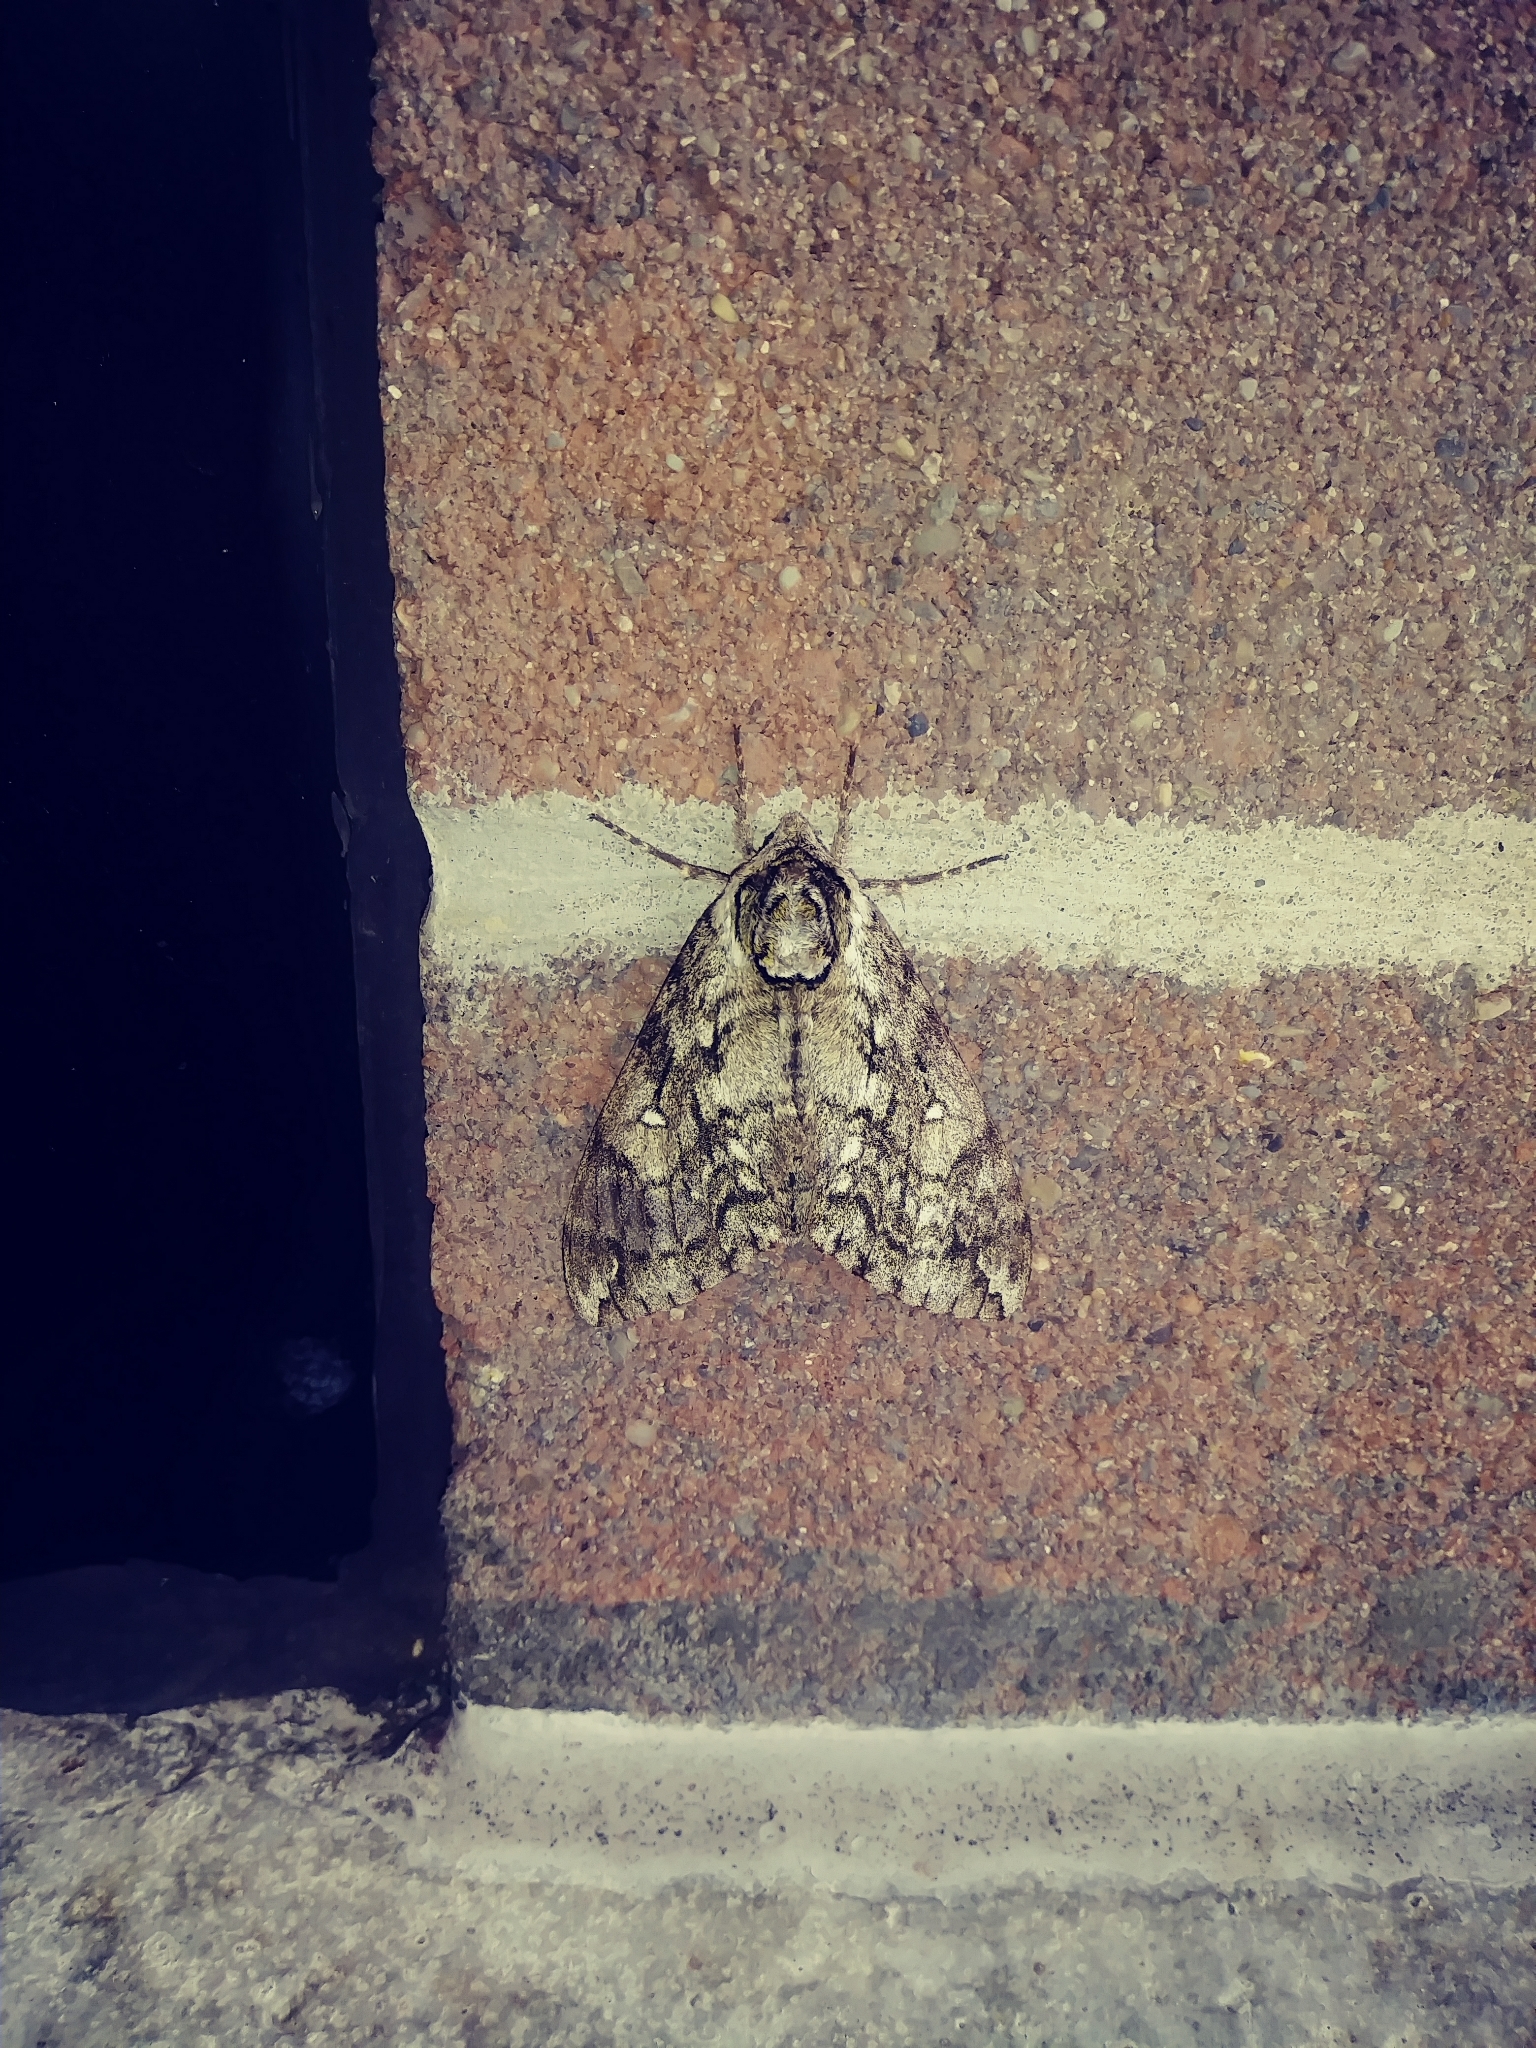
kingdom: Animalia
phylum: Arthropoda
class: Insecta
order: Lepidoptera
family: Sphingidae
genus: Ceratomia
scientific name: Ceratomia undulosa
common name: Waved sphinx
